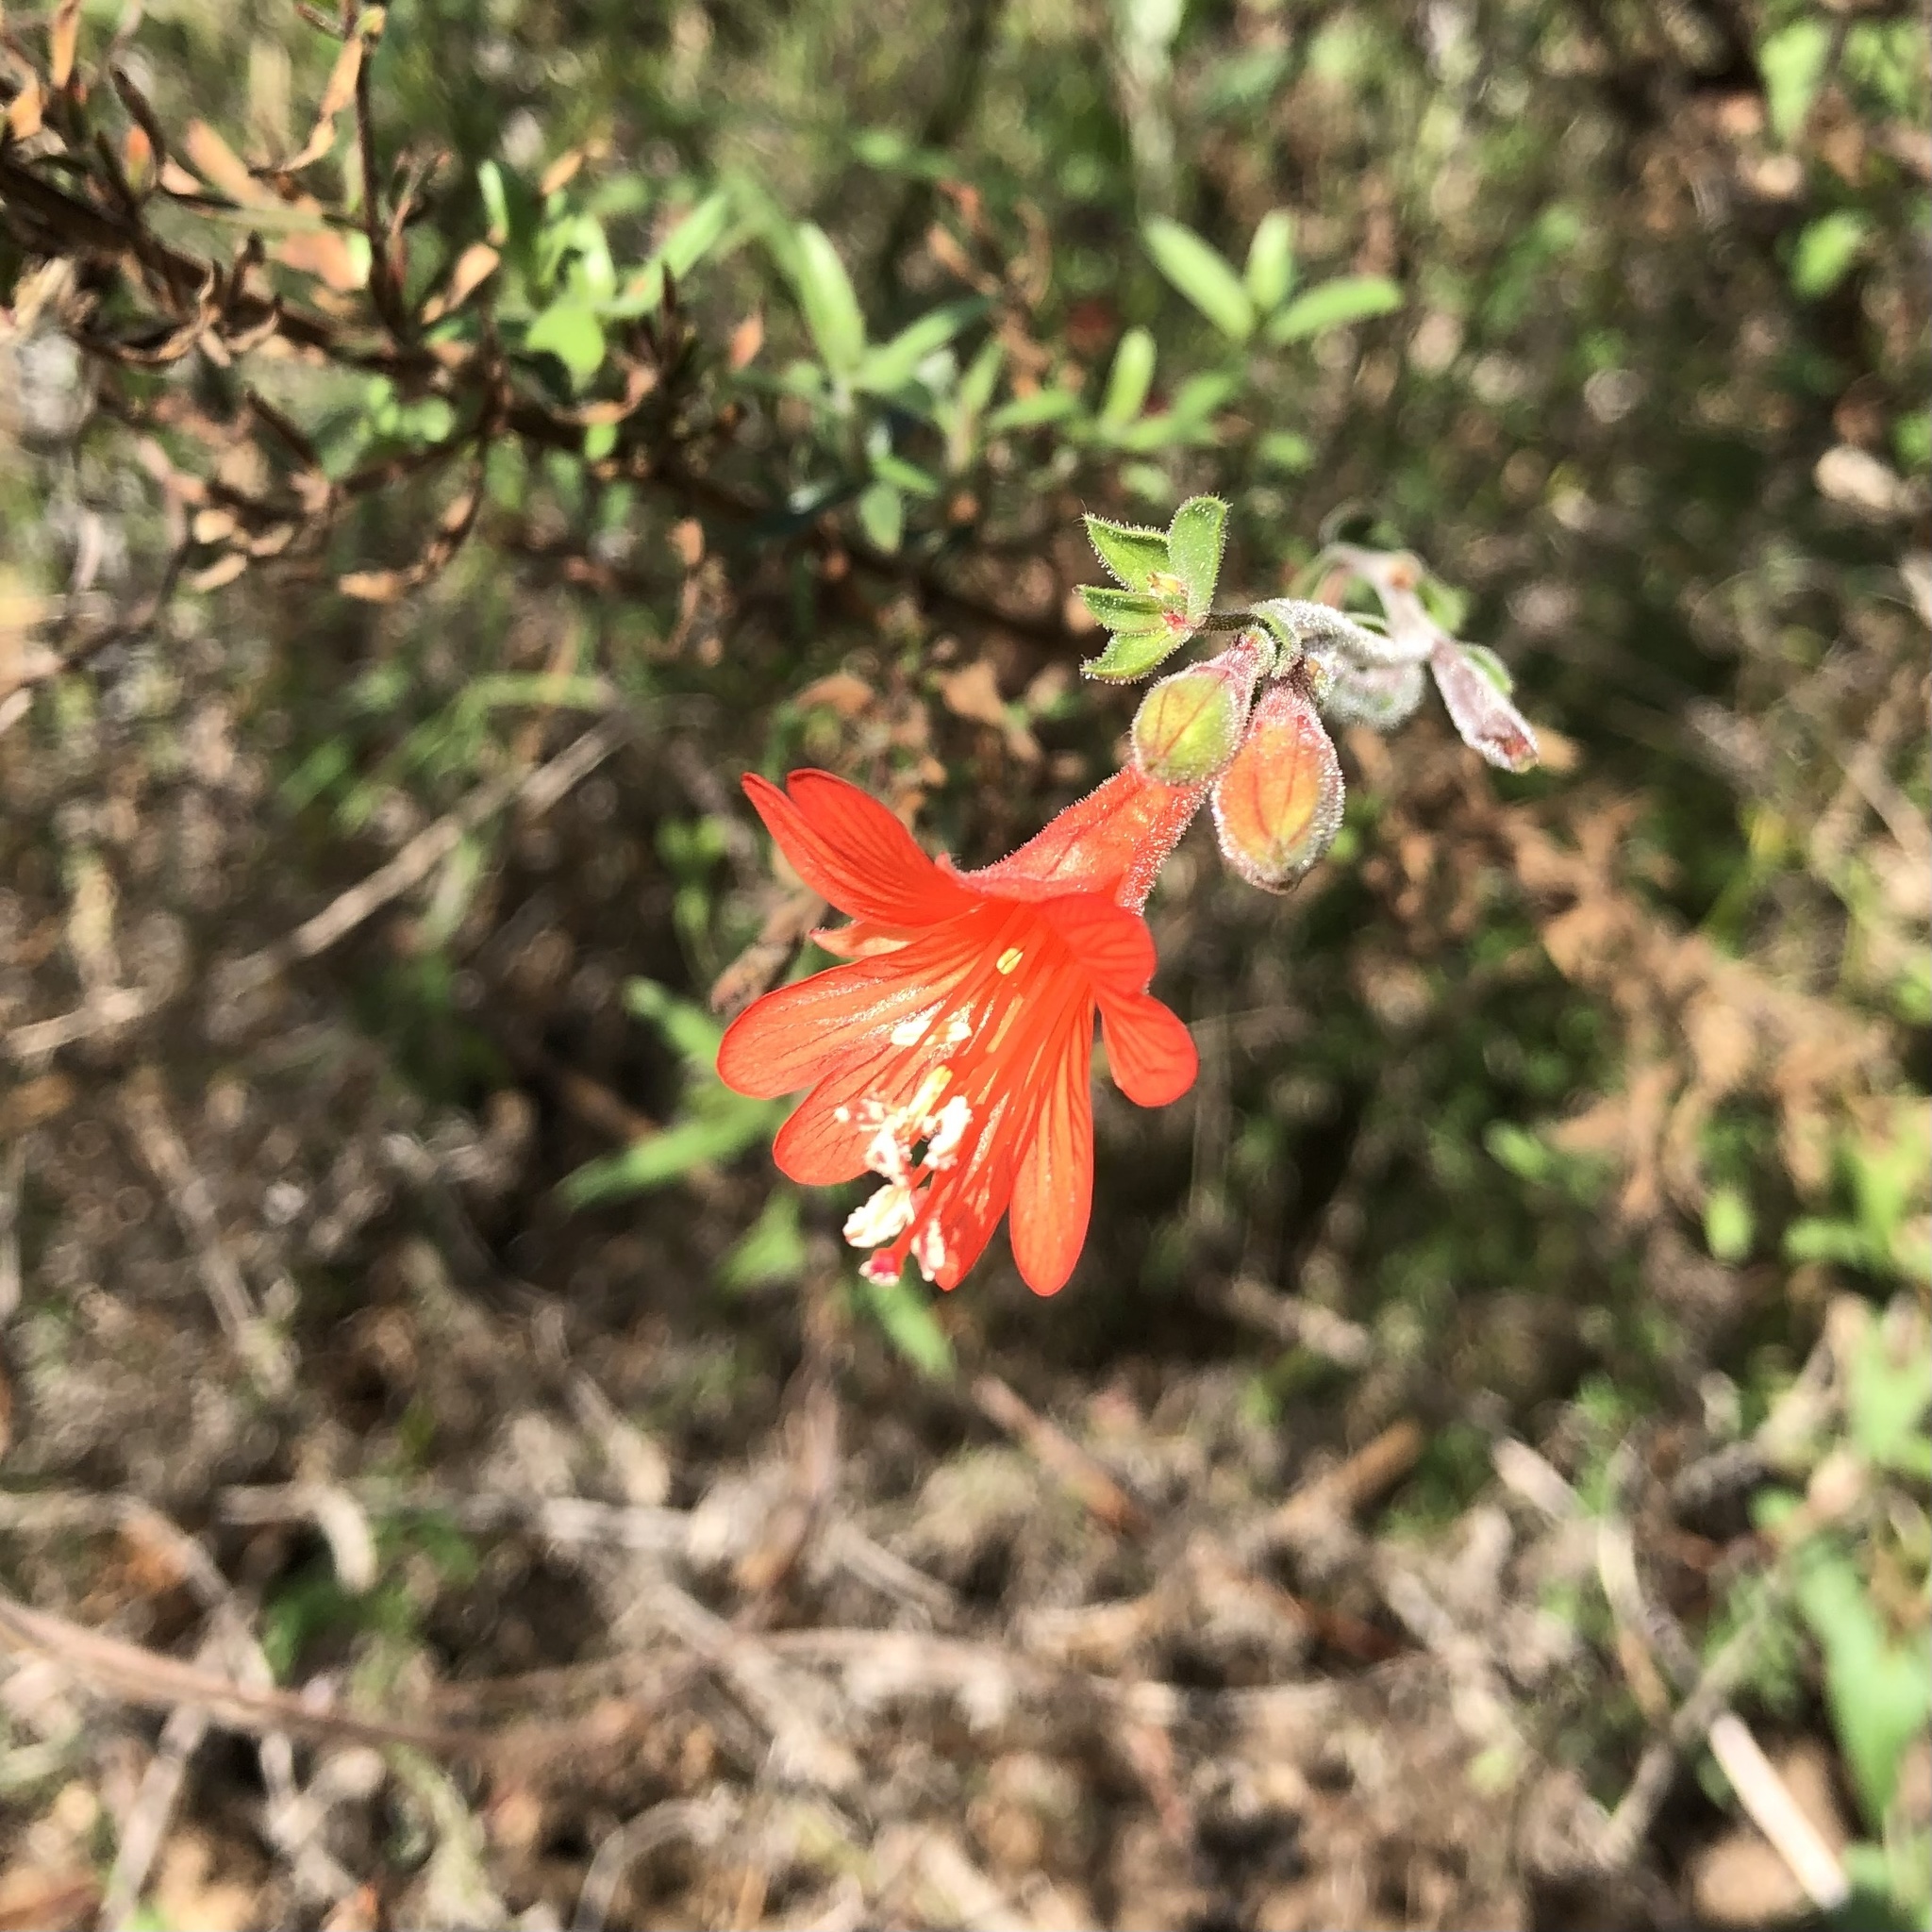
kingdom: Plantae
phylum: Tracheophyta
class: Magnoliopsida
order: Myrtales
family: Onagraceae
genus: Epilobium
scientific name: Epilobium canum
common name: California-fuchsia
